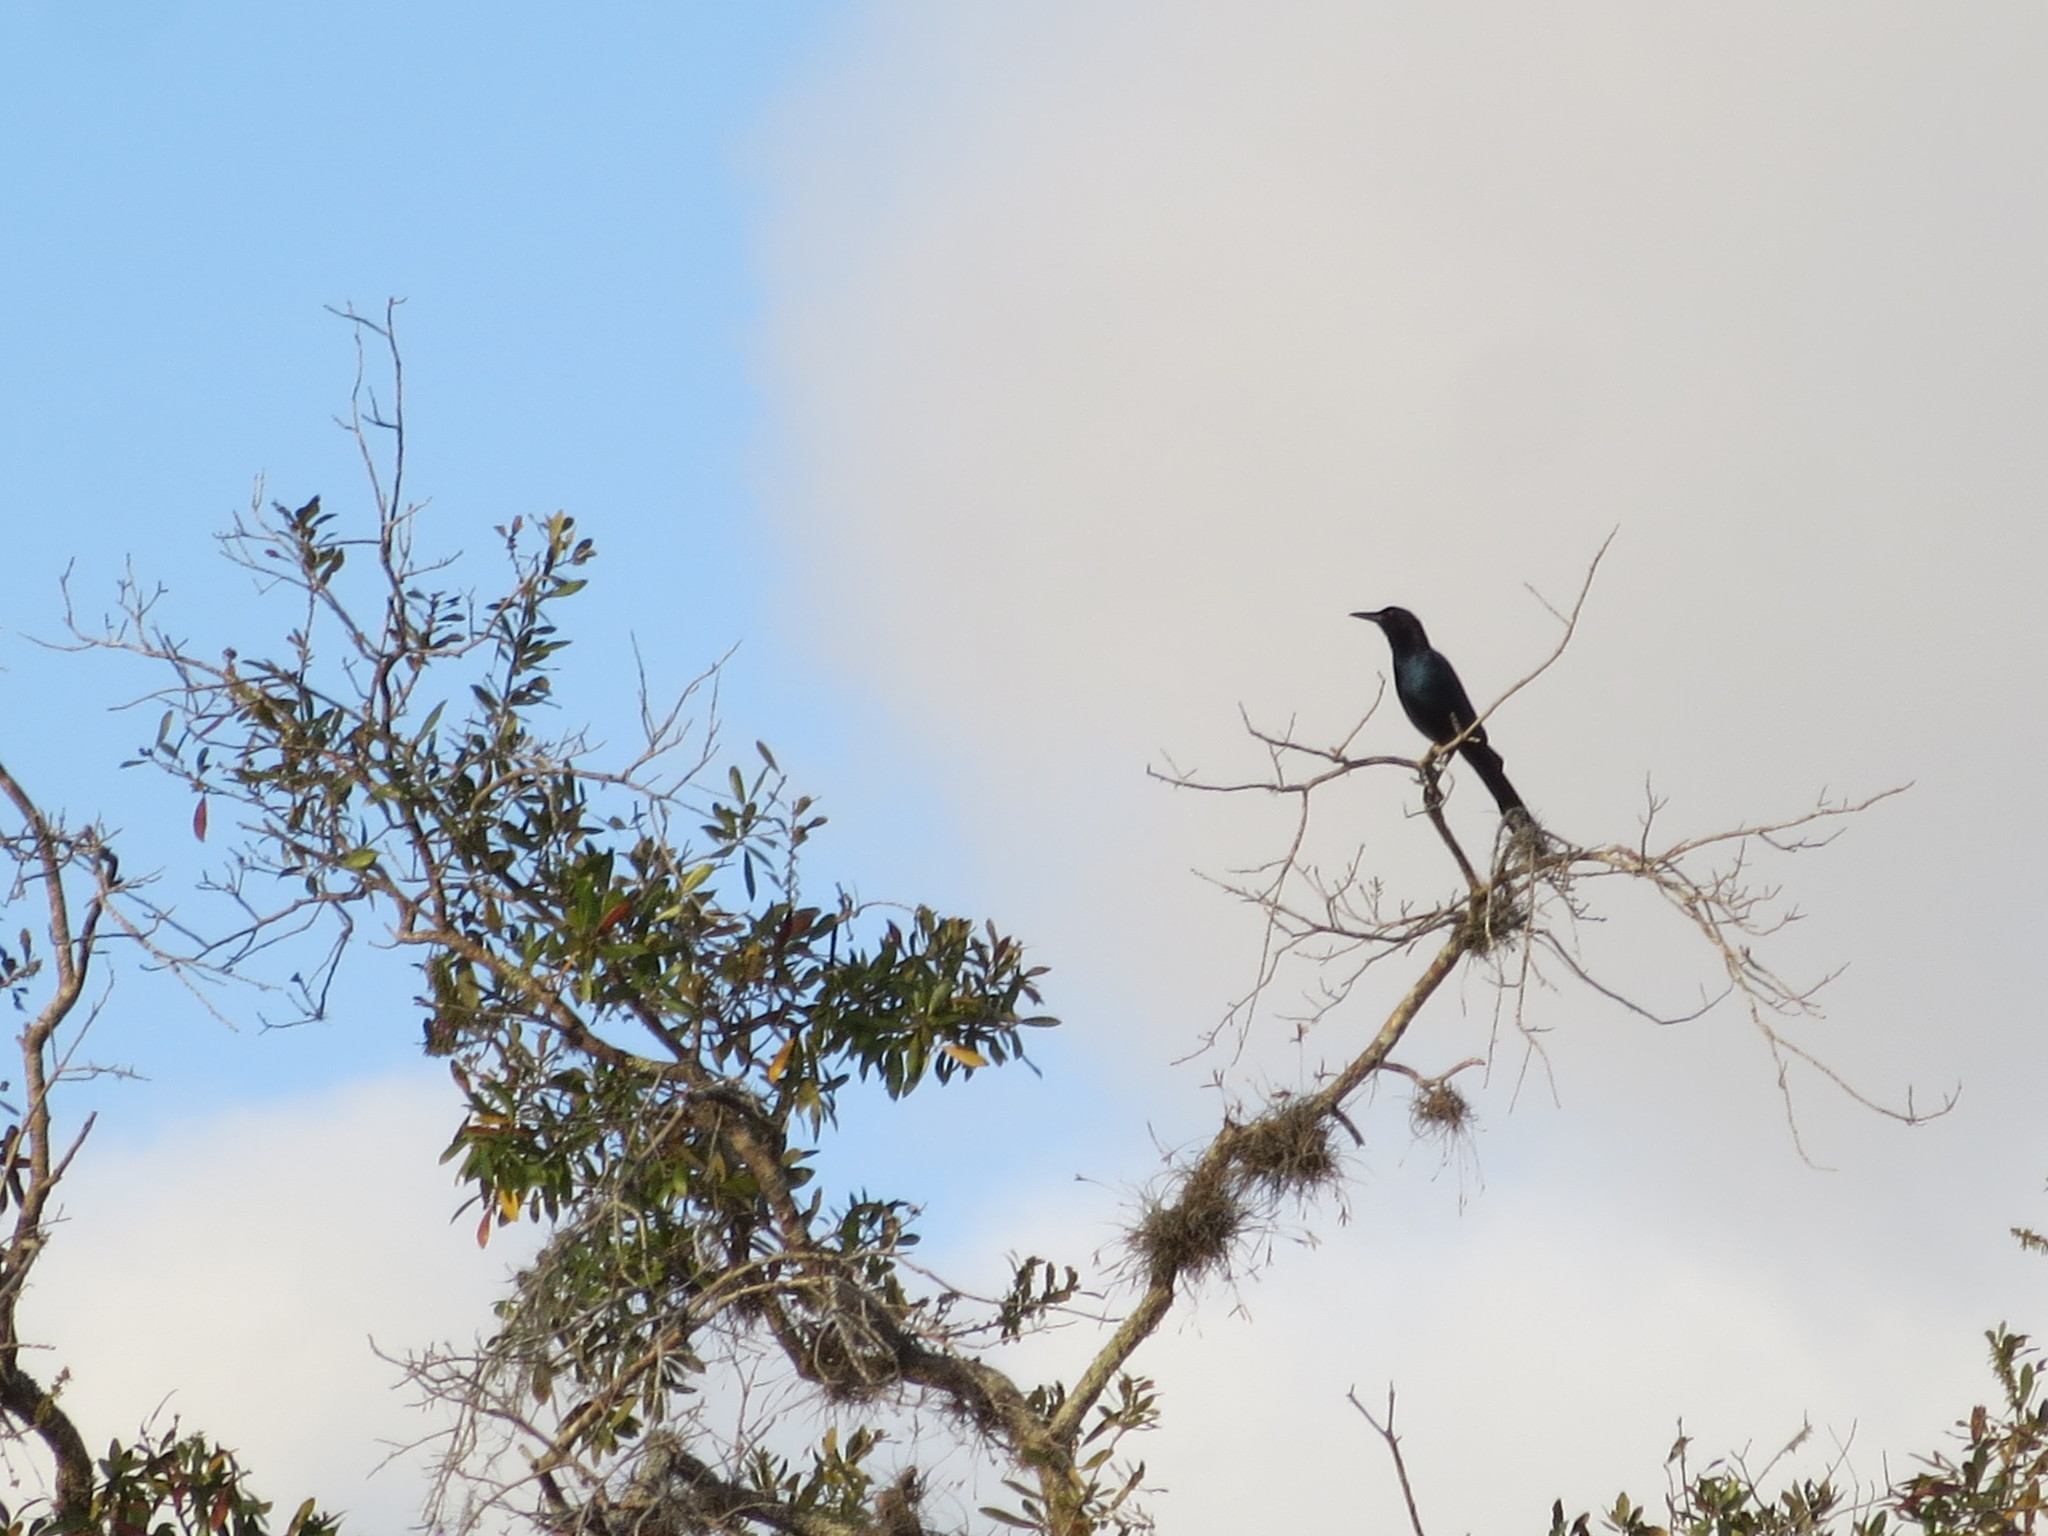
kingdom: Animalia
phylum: Chordata
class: Aves
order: Passeriformes
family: Icteridae
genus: Quiscalus
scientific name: Quiscalus major
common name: Boat-tailed grackle
